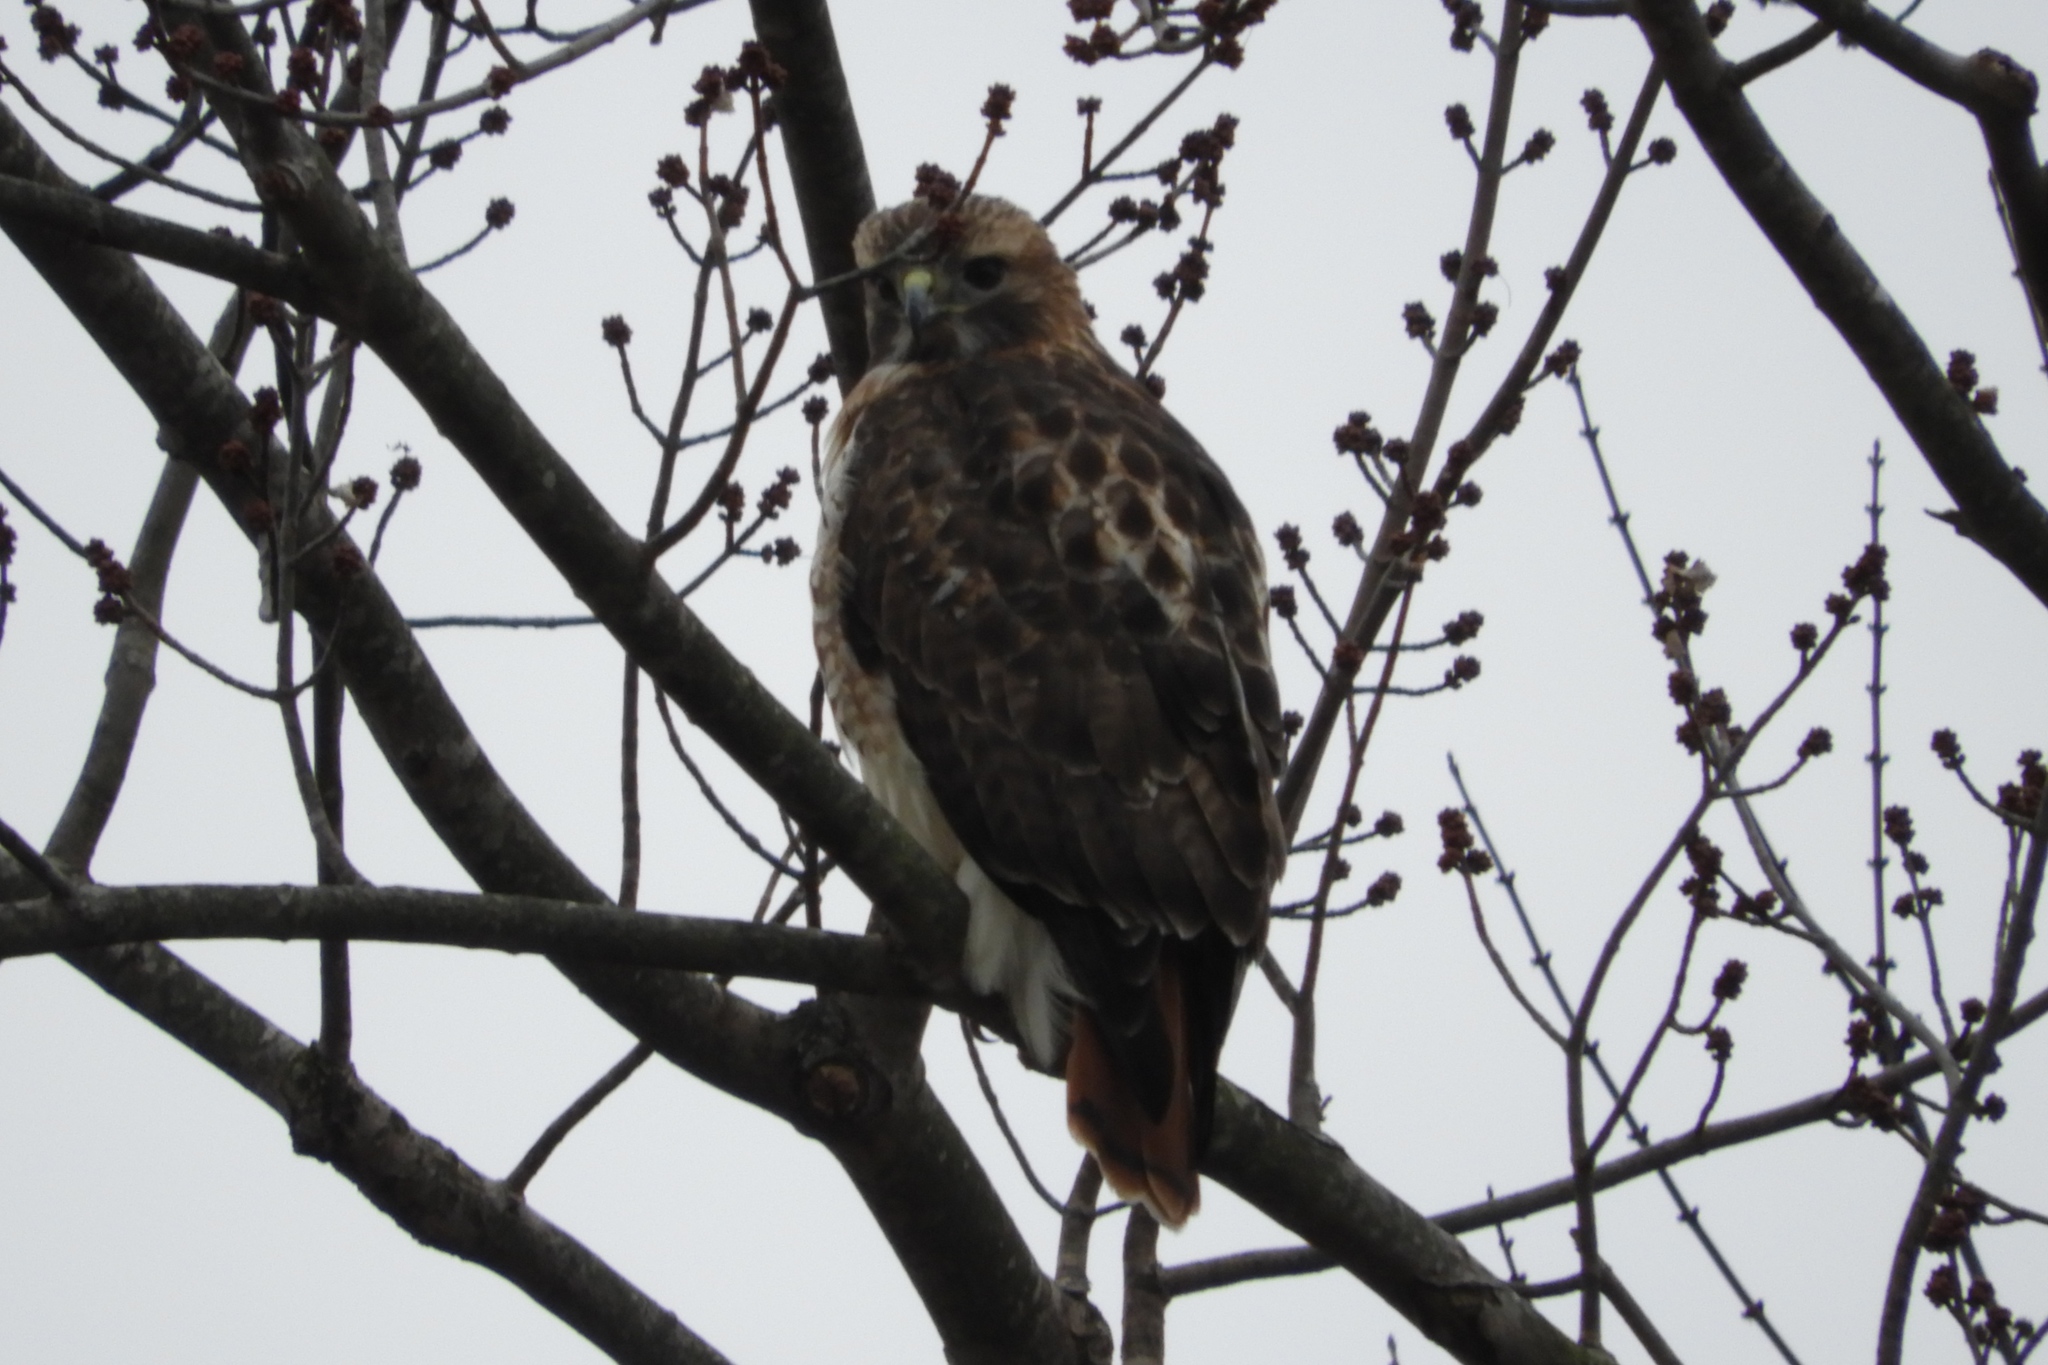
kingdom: Animalia
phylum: Chordata
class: Aves
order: Accipitriformes
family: Accipitridae
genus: Buteo
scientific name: Buteo jamaicensis
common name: Red-tailed hawk
